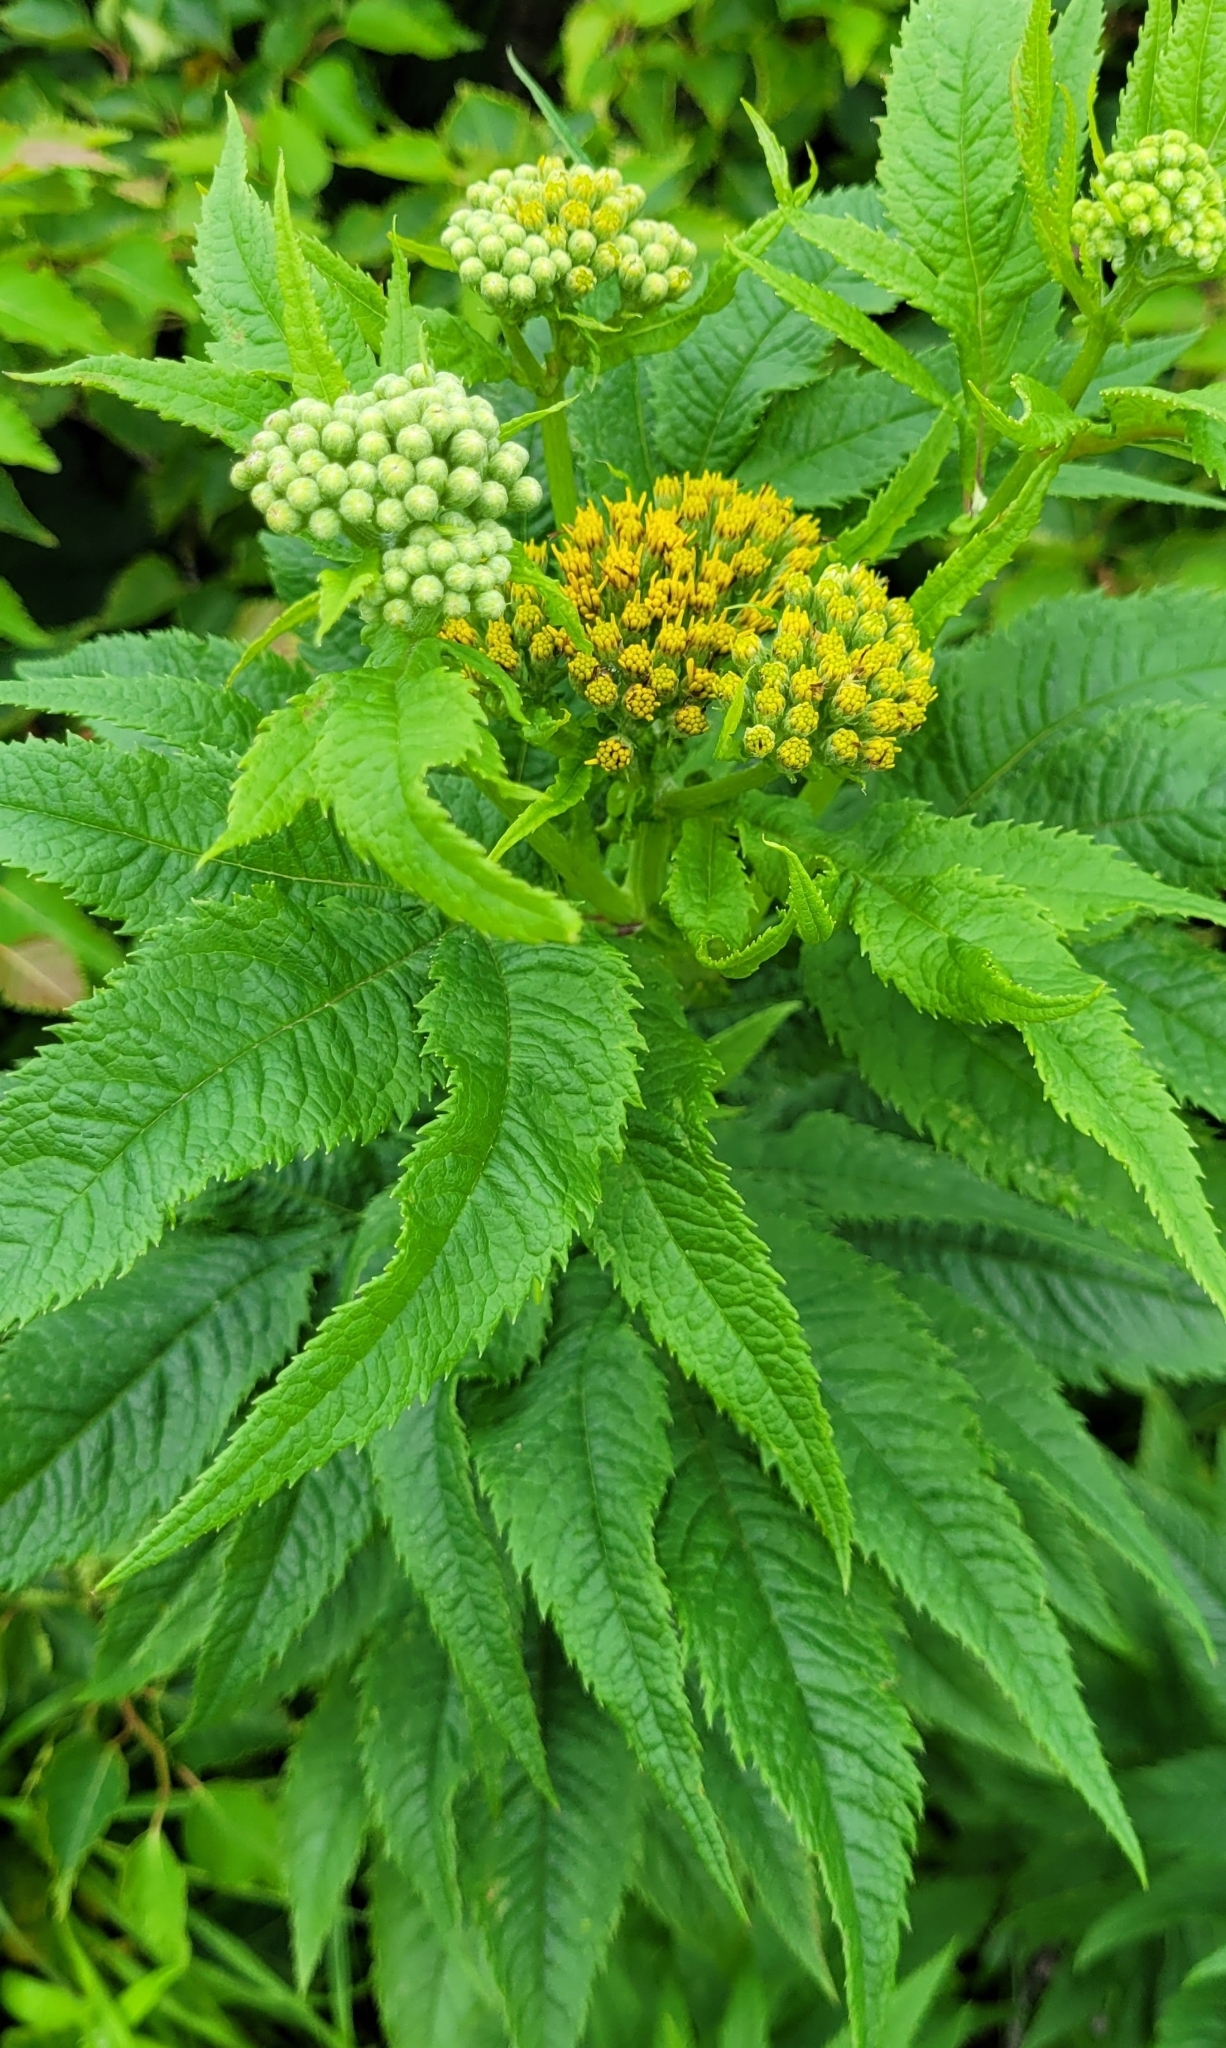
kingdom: Plantae
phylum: Tracheophyta
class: Magnoliopsida
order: Asterales
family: Asteraceae
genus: Jacobaea
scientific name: Jacobaea cannabifolia
